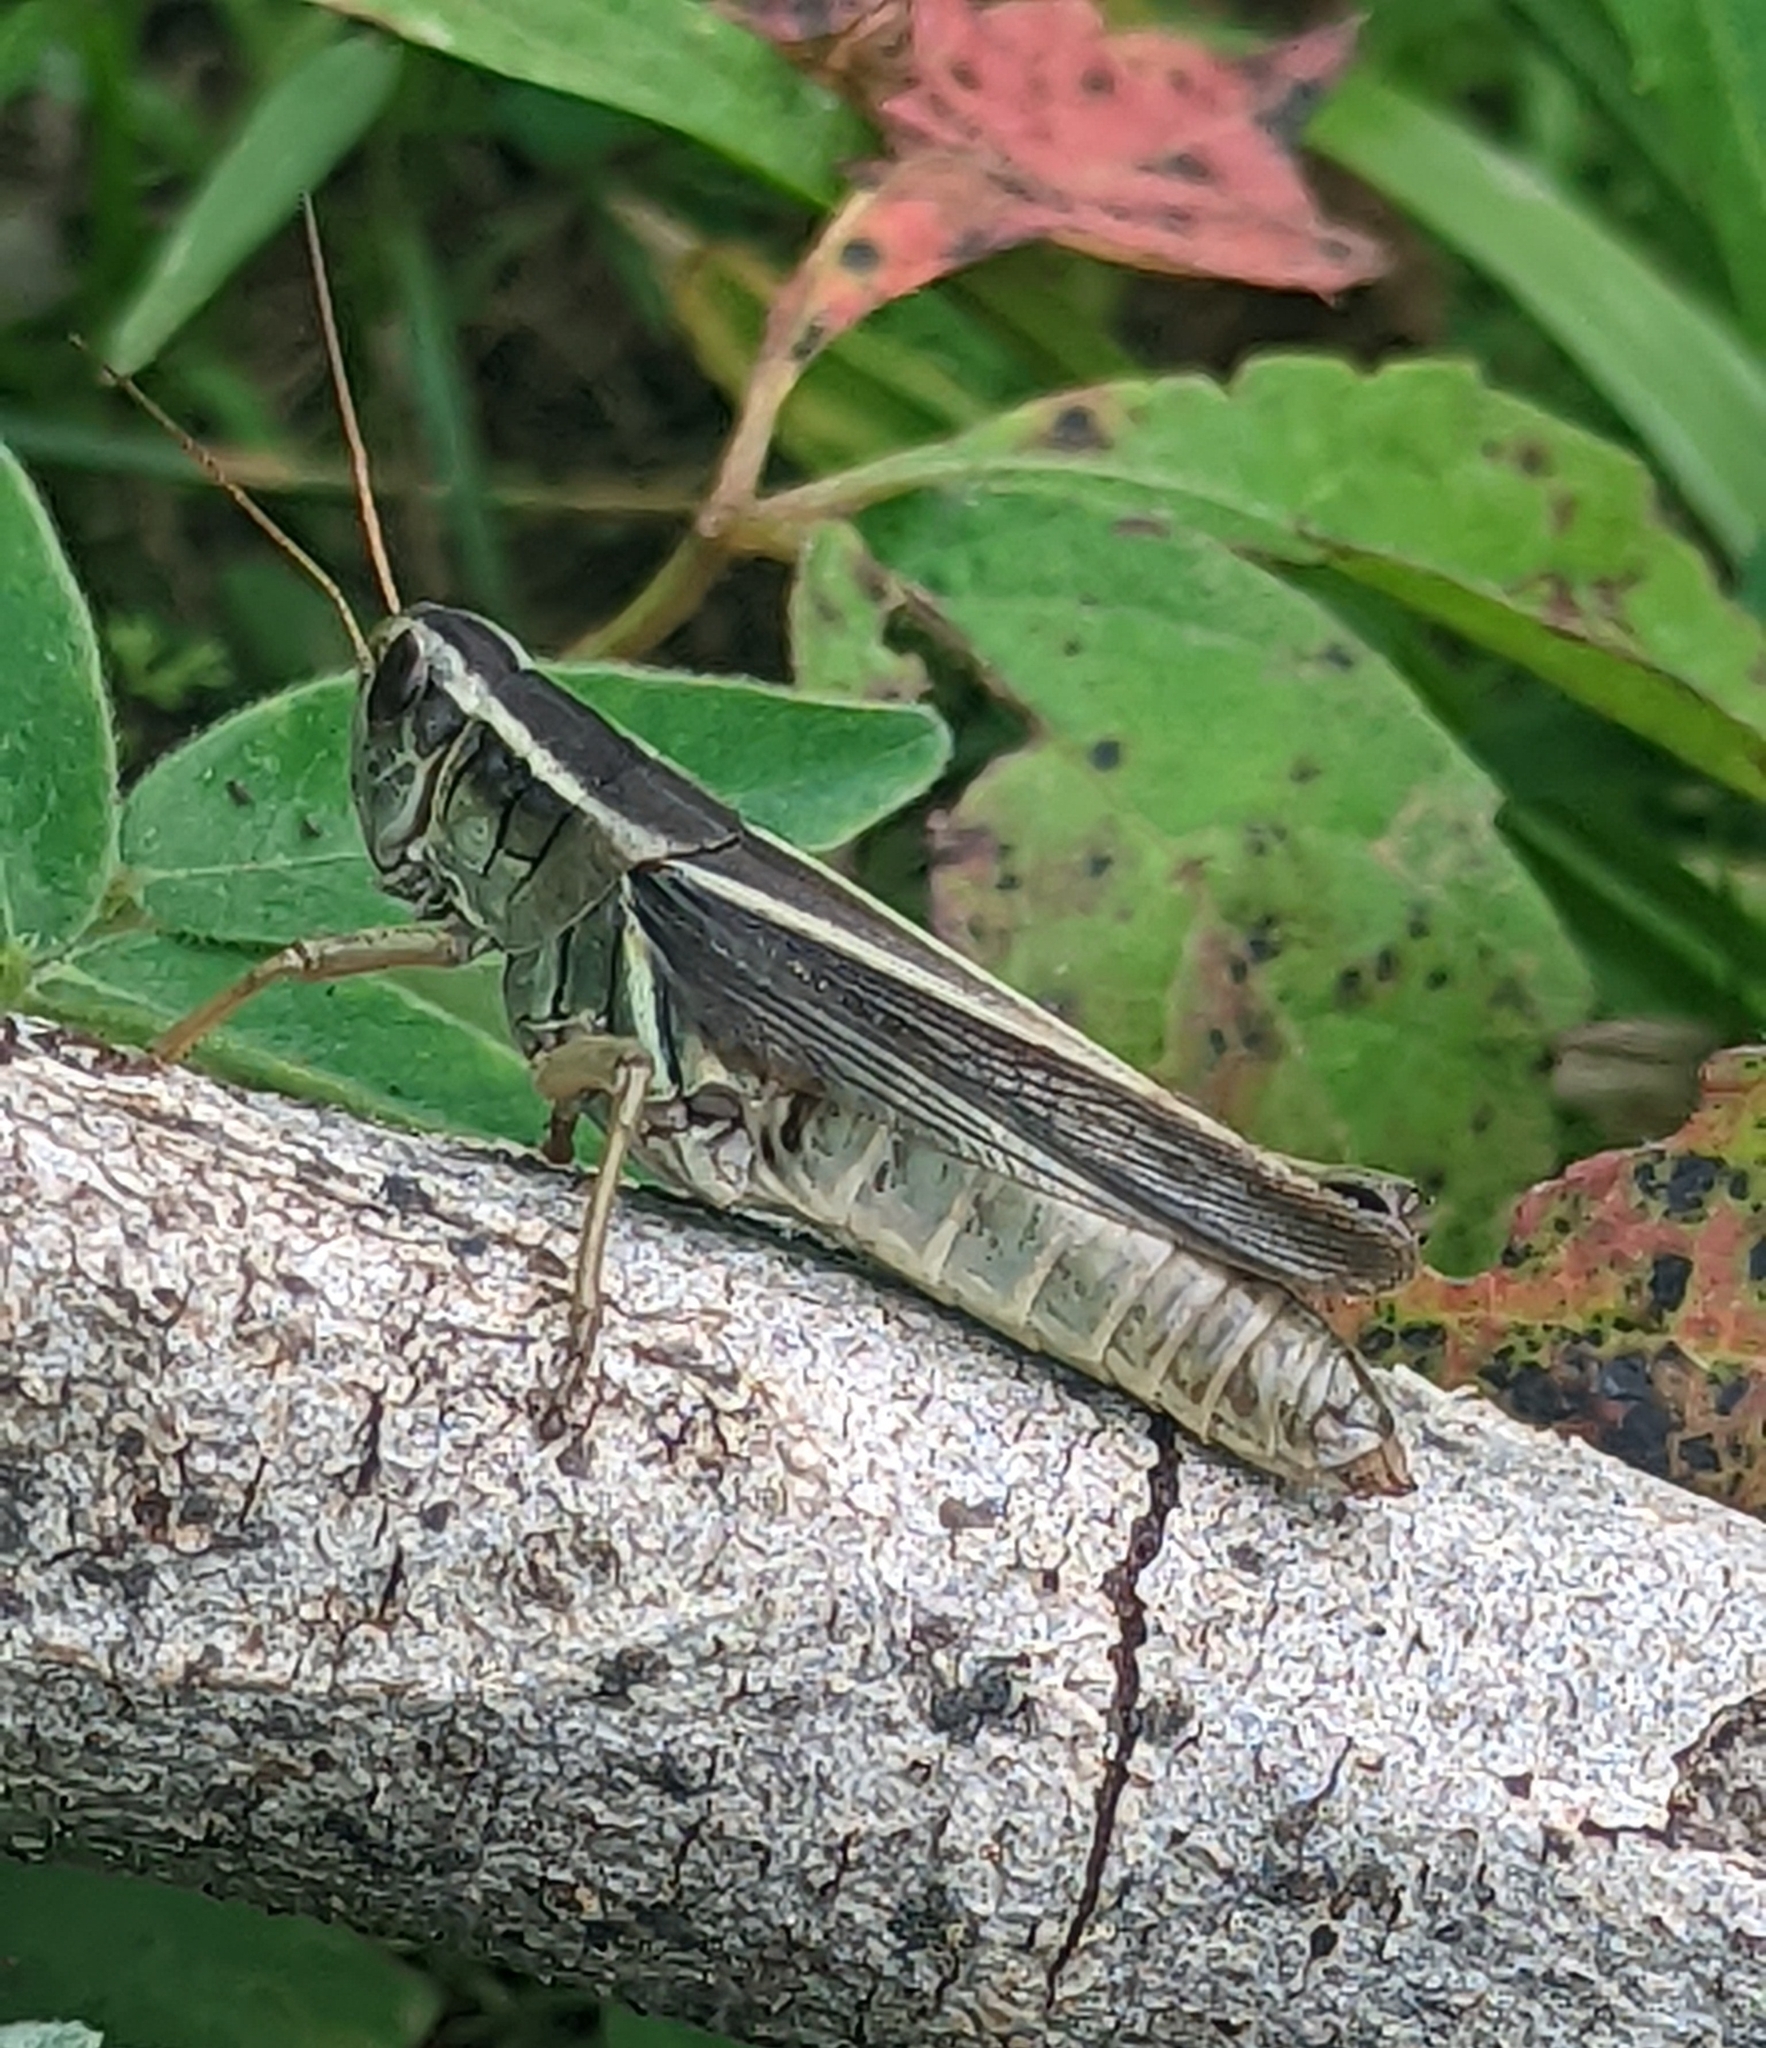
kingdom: Animalia
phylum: Arthropoda
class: Insecta
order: Orthoptera
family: Acrididae
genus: Melanoplus
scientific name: Melanoplus bivittatus
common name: Two-striped grasshopper
